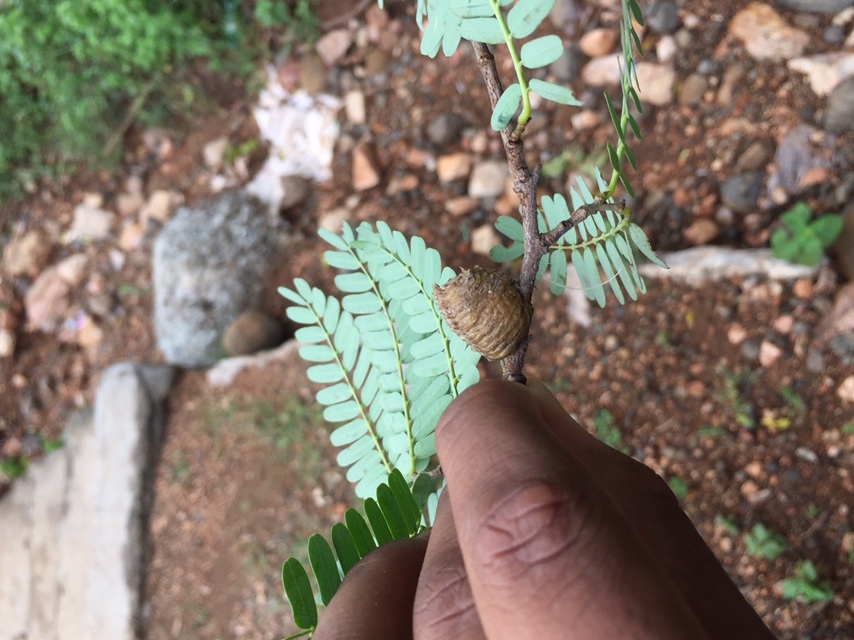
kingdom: Plantae
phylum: Tracheophyta
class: Magnoliopsida
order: Fabales
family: Fabaceae
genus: Tamarindus
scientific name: Tamarindus indica
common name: Tamarind
